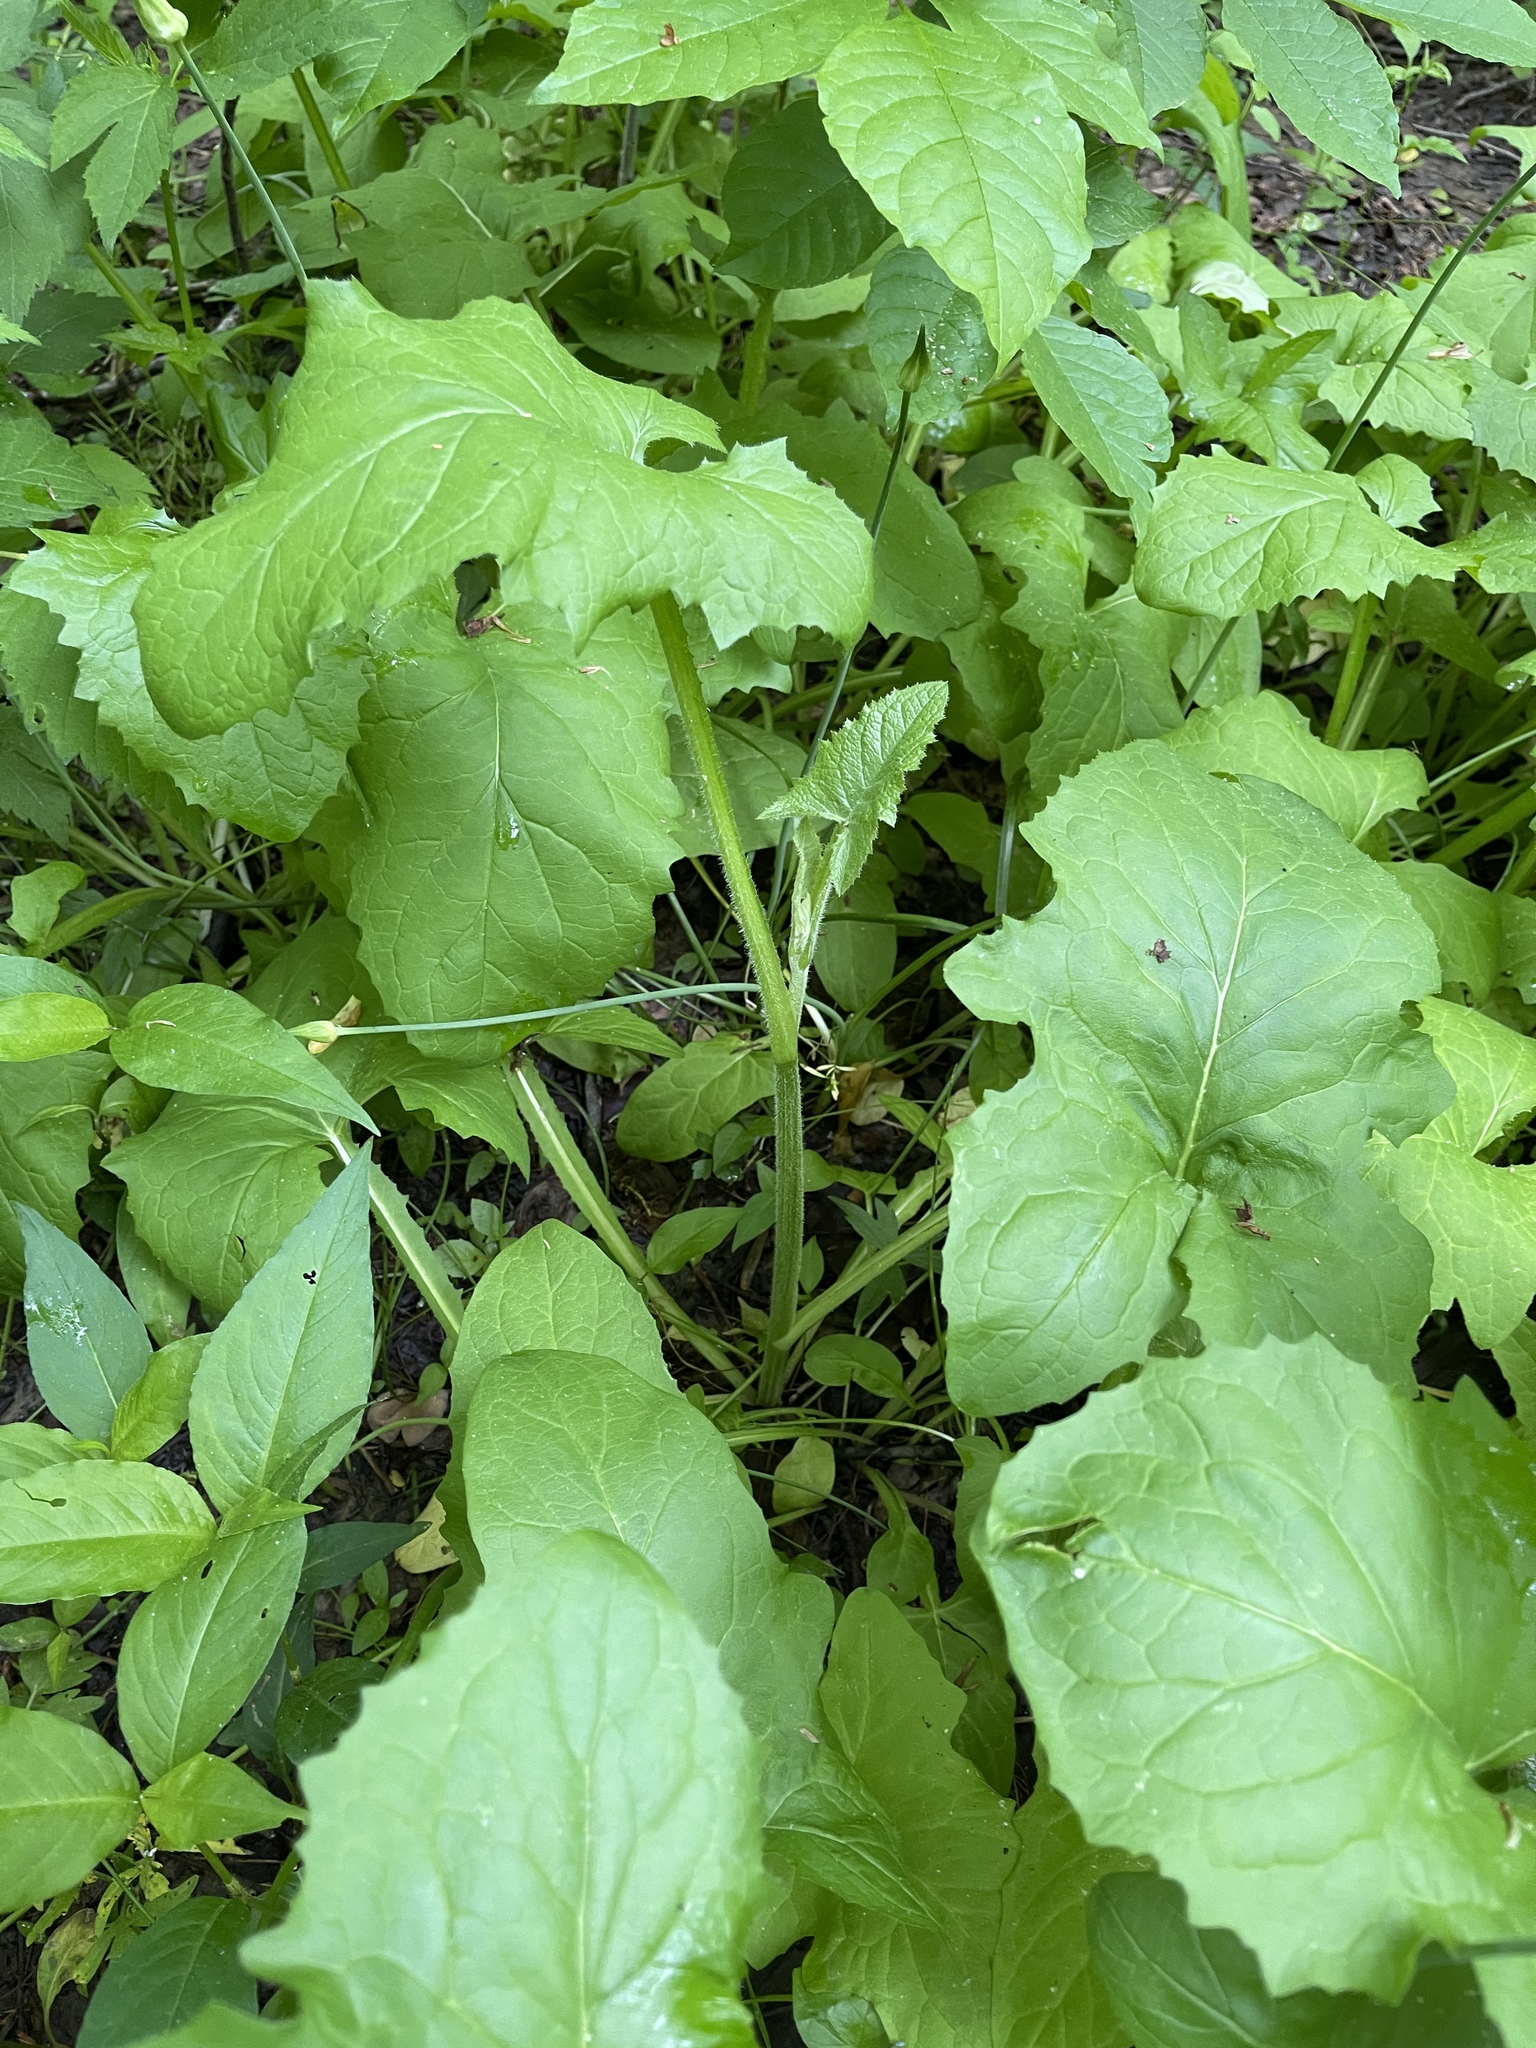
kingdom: Plantae
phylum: Tracheophyta
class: Magnoliopsida
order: Asterales
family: Asteraceae
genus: Nabalus
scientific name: Nabalus crepidineus
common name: Nodding rattlesnakeroot
